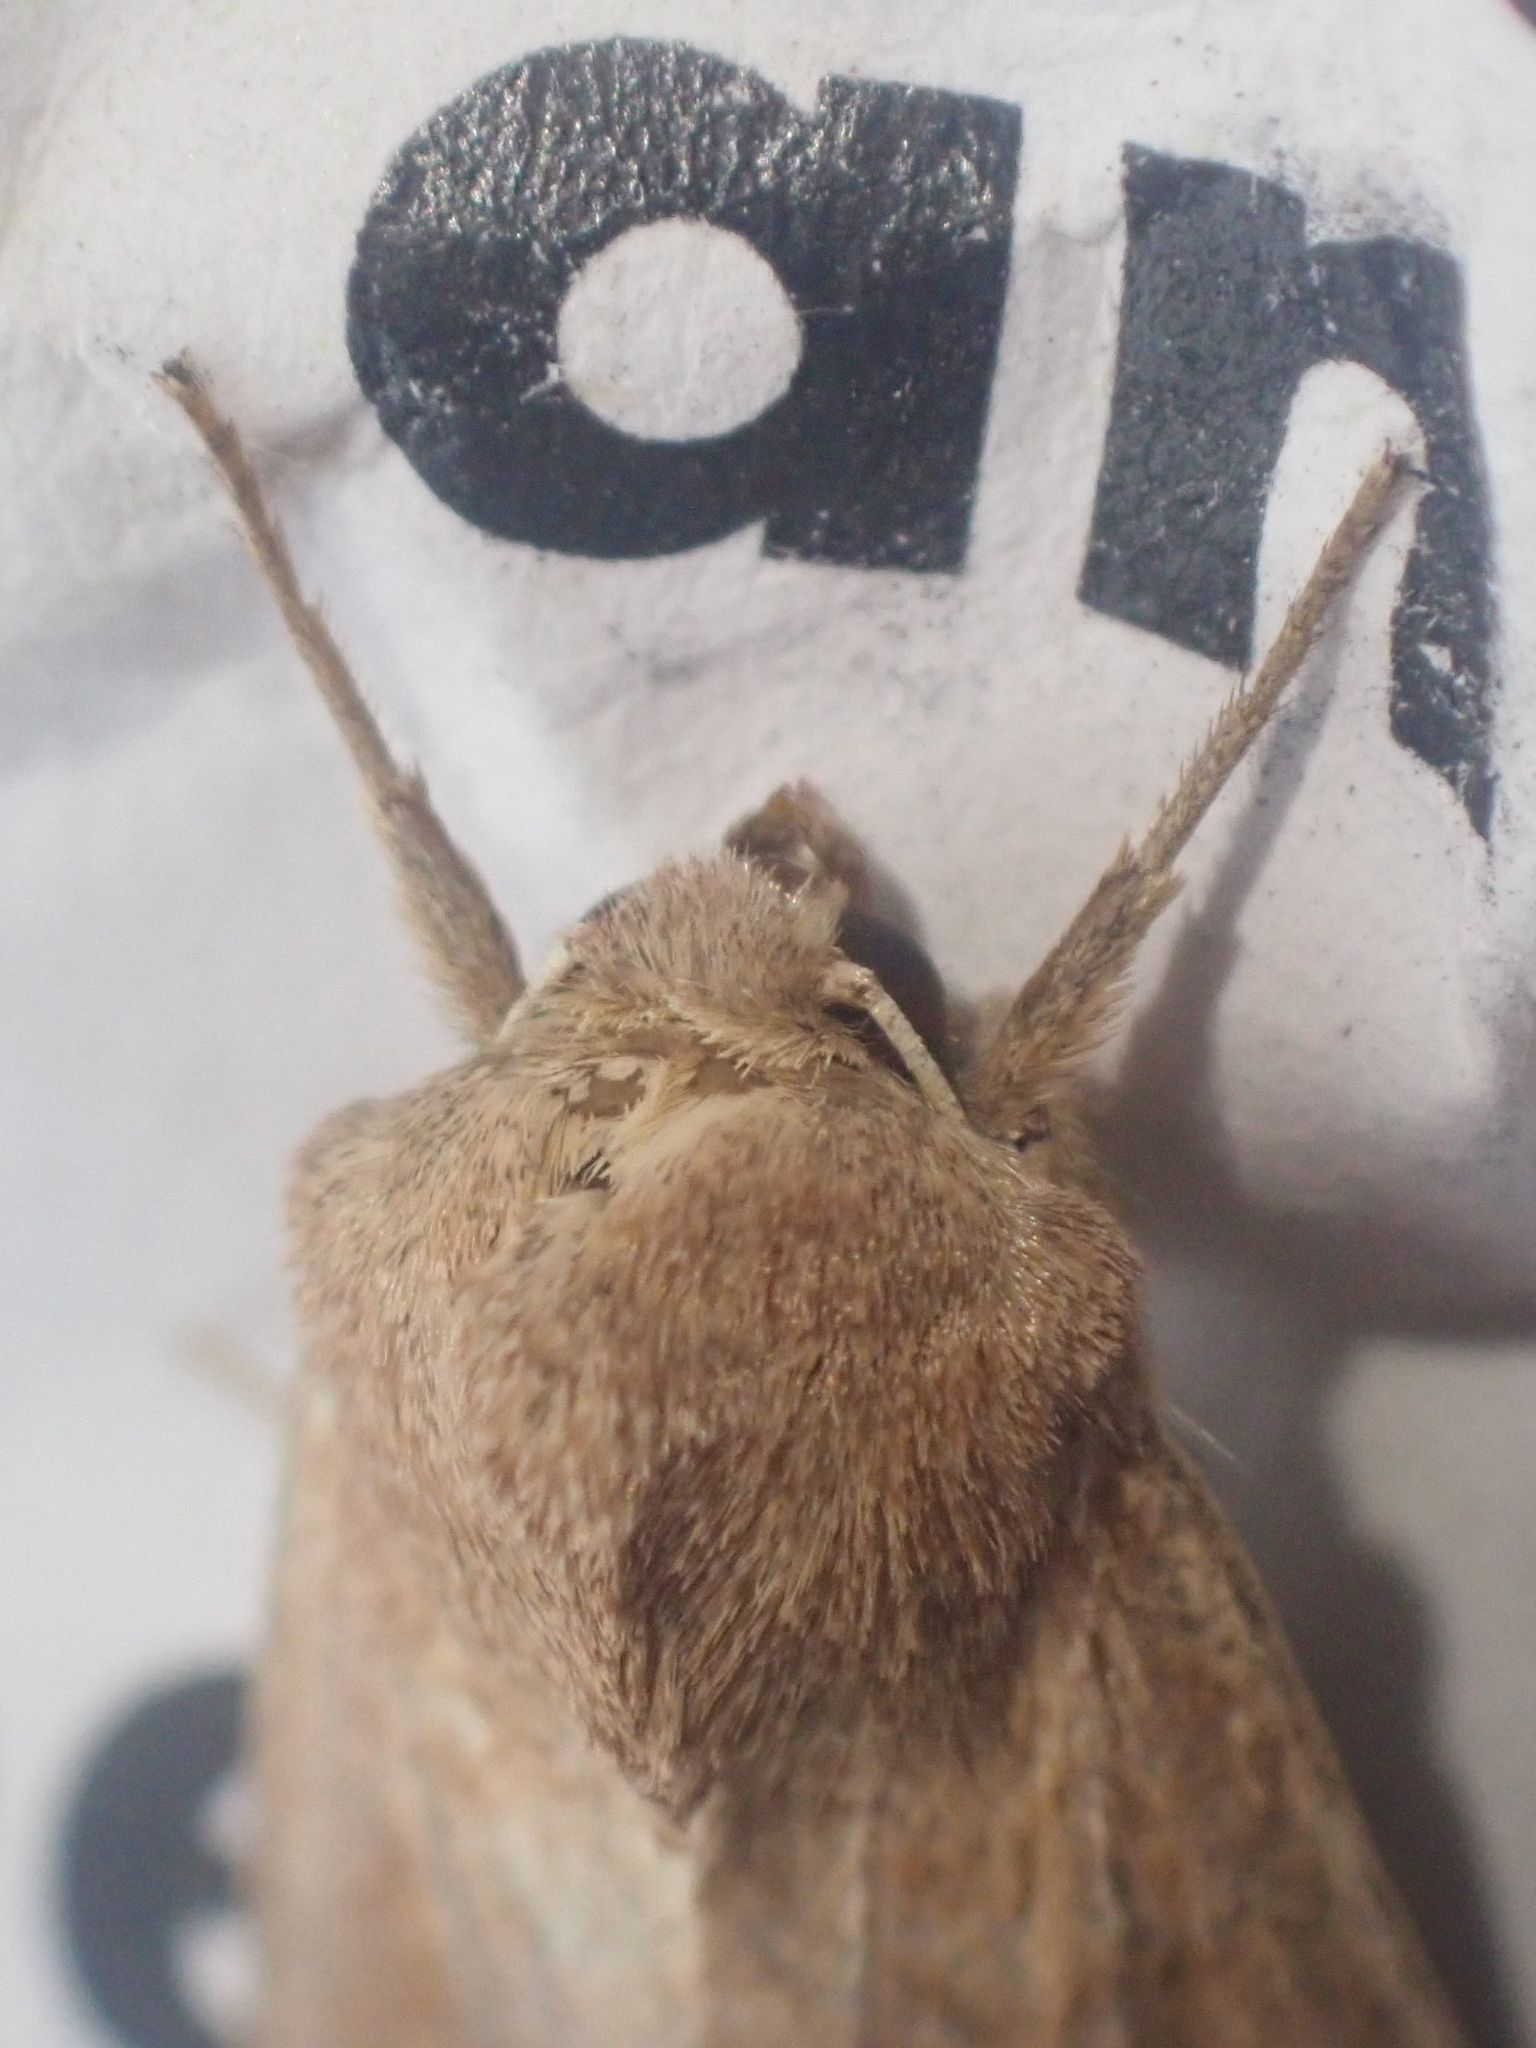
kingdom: Animalia
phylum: Arthropoda
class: Insecta
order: Lepidoptera
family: Noctuidae
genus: Mythimna
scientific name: Mythimna albipuncta
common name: White-point
